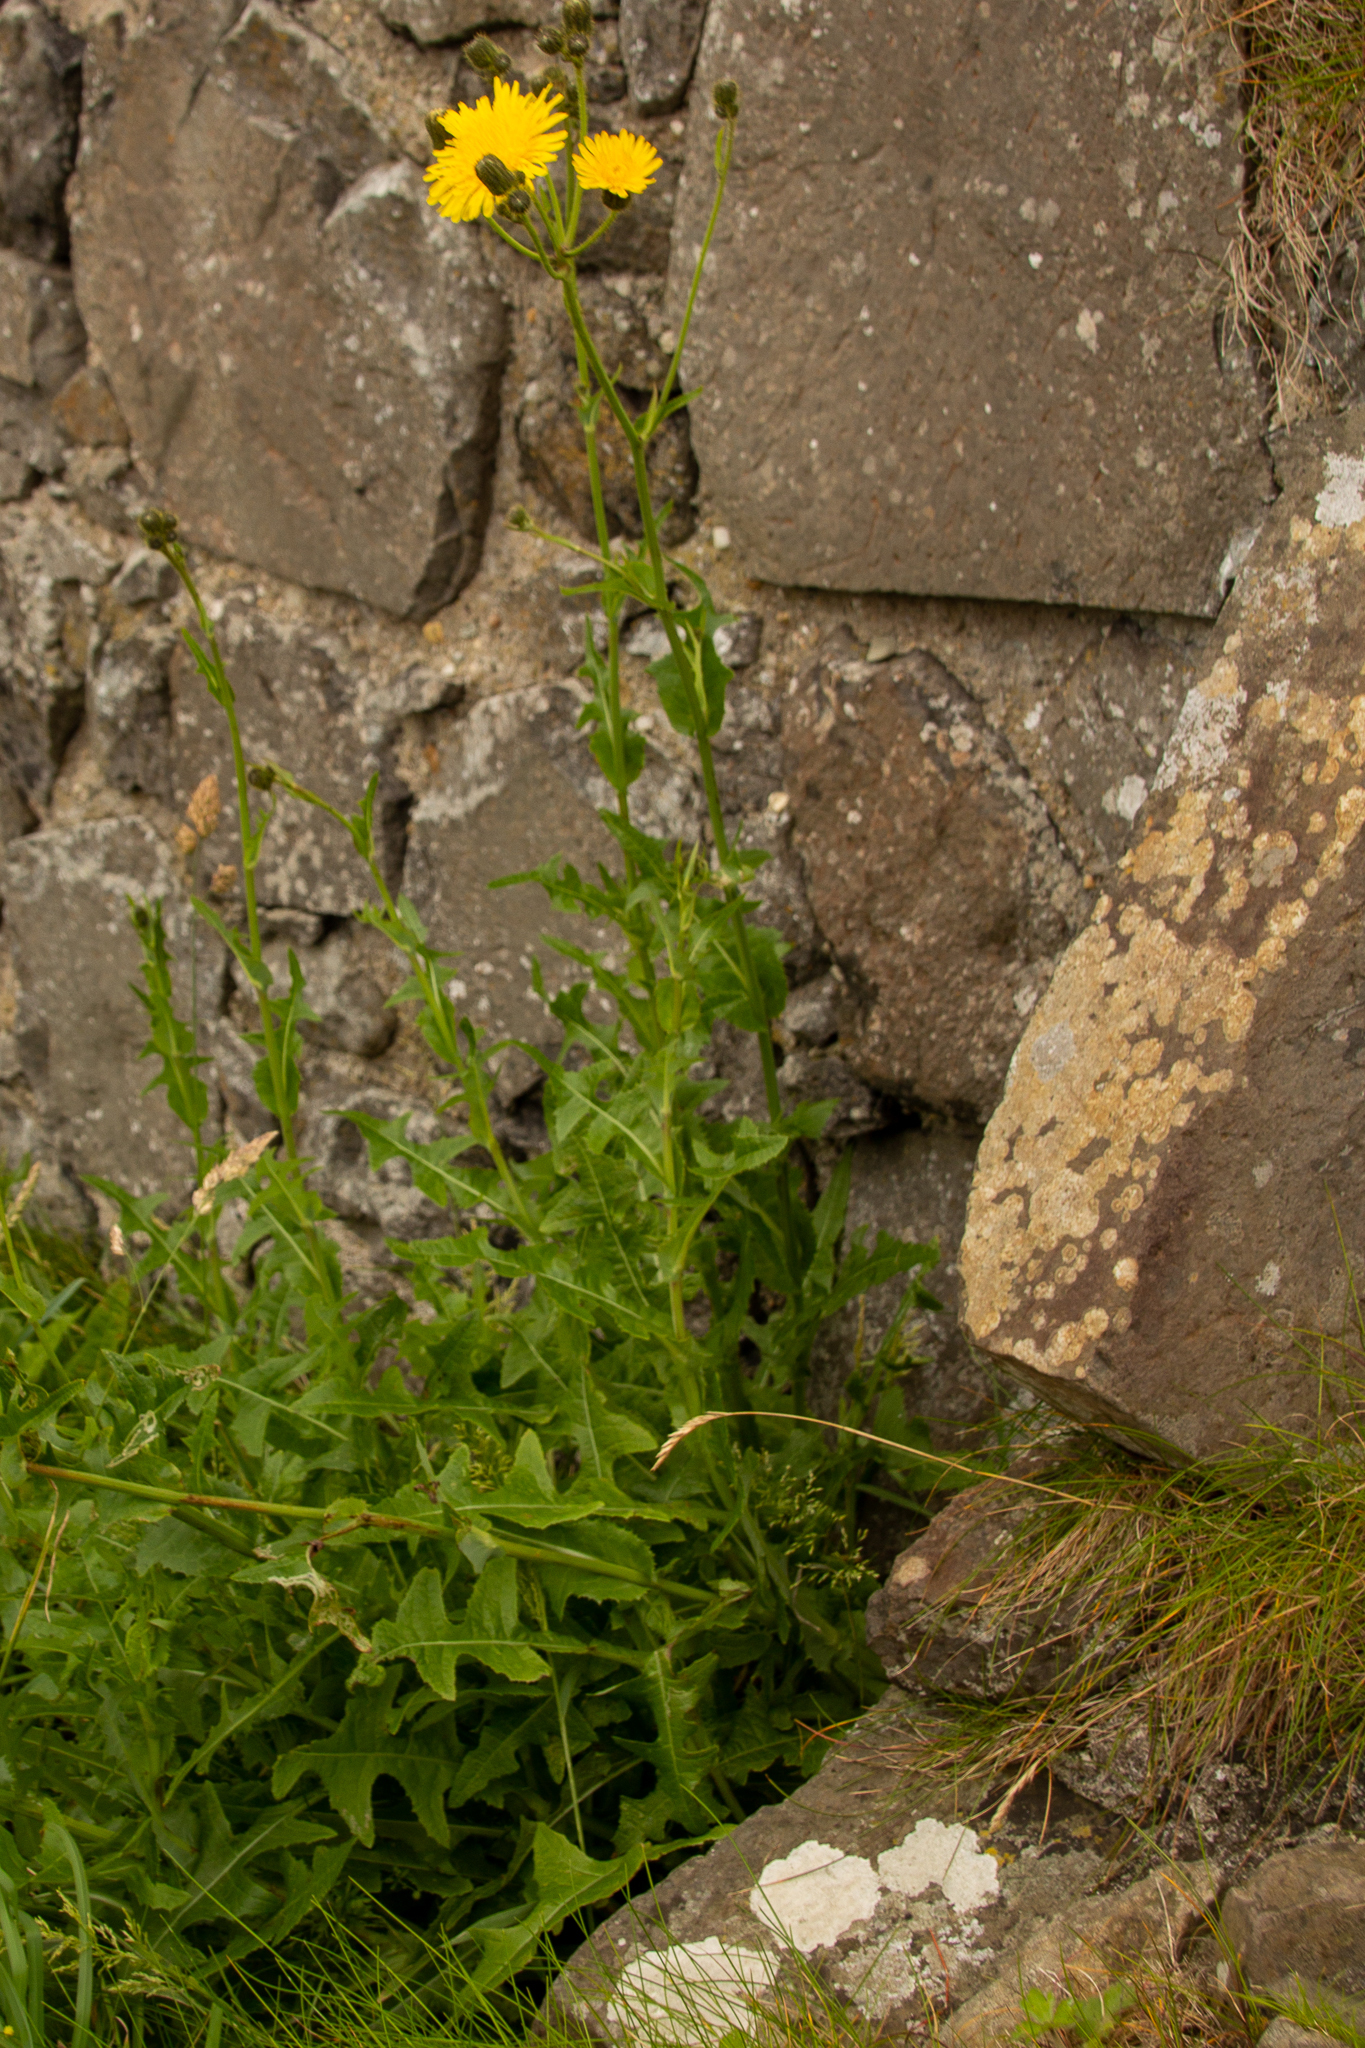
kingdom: Plantae
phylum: Tracheophyta
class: Magnoliopsida
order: Asterales
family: Asteraceae
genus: Sonchus
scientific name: Sonchus arvensis
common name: Perennial sow-thistle
